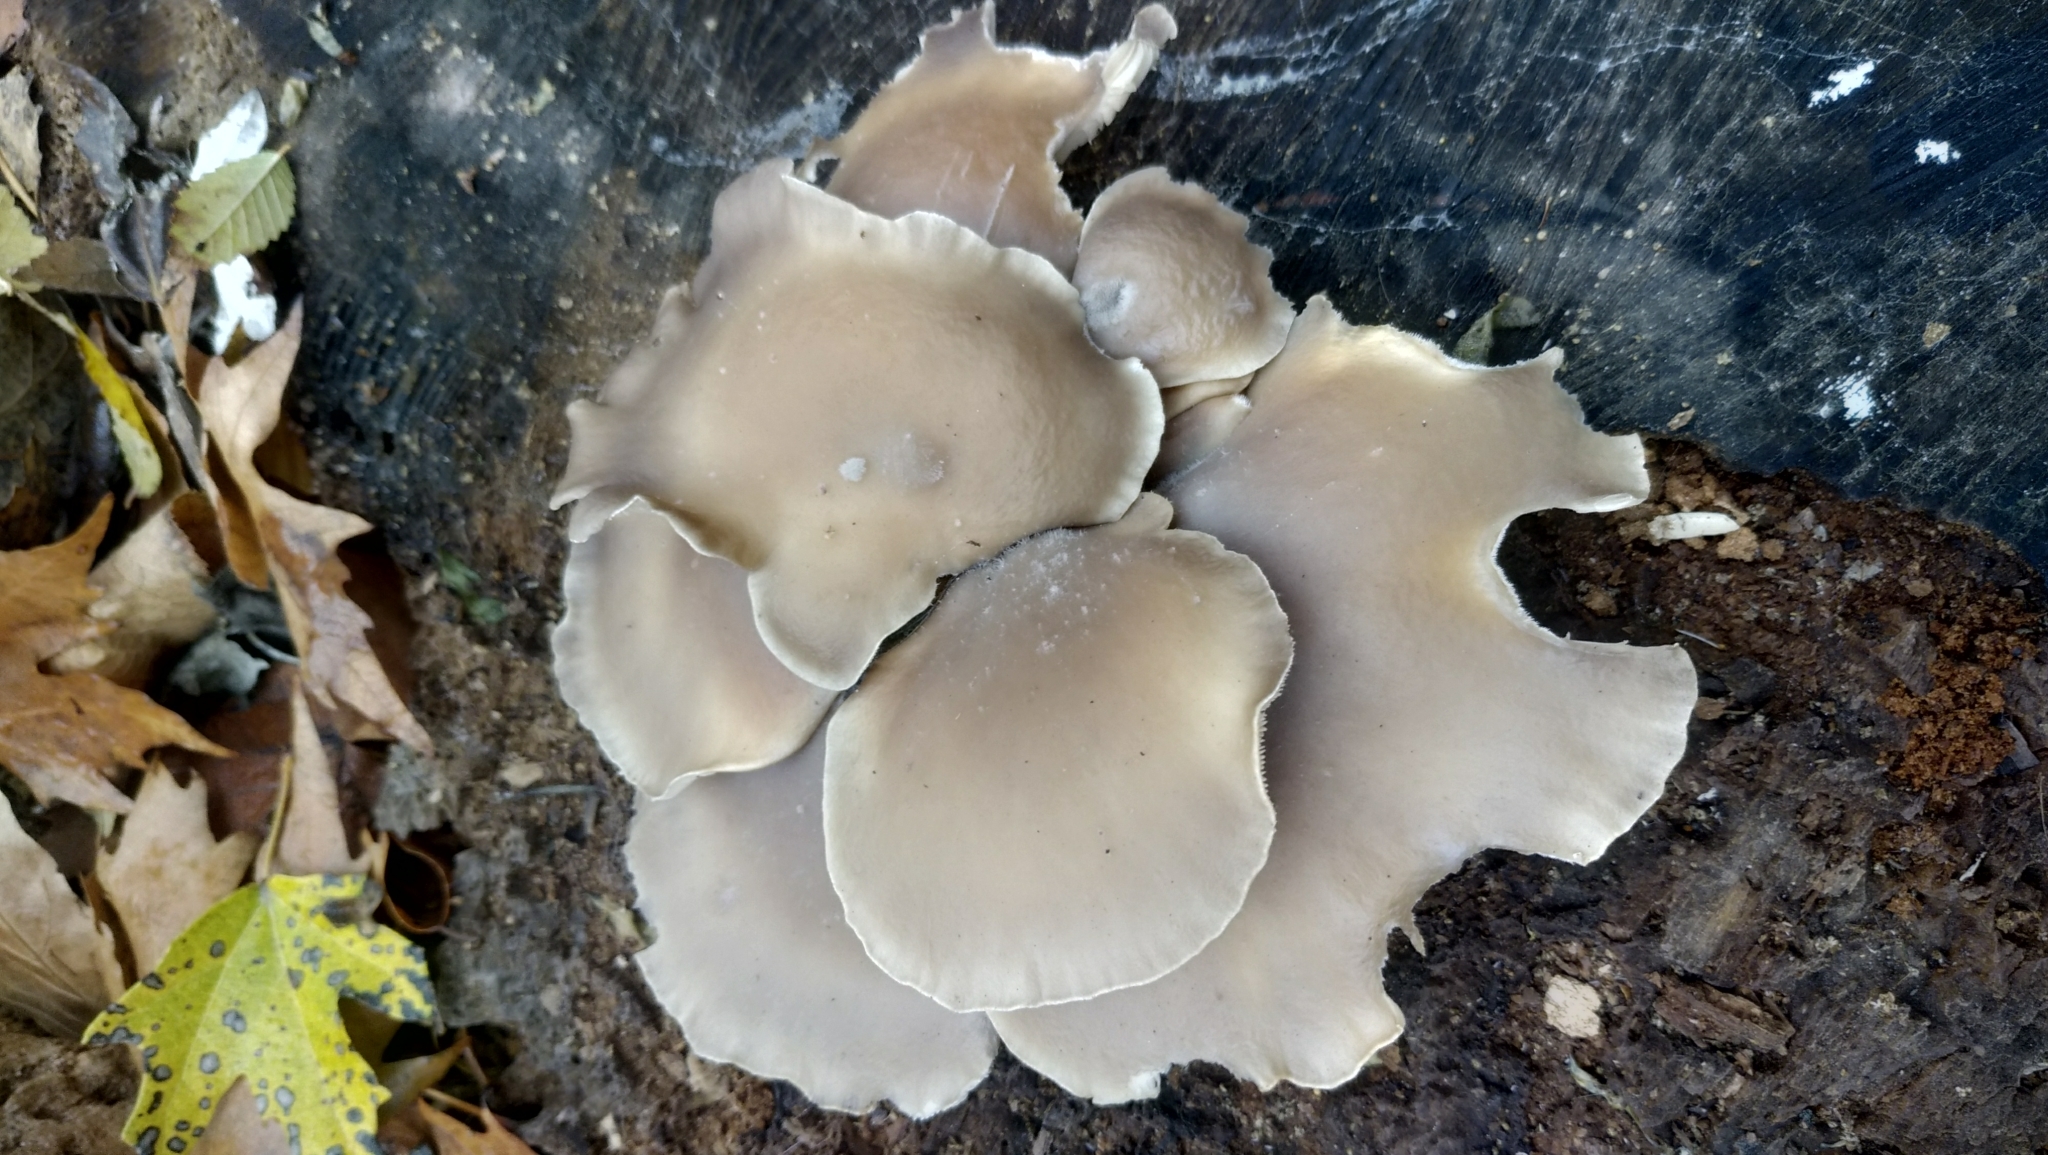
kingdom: Fungi
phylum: Basidiomycota
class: Agaricomycetes
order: Agaricales
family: Pleurotaceae
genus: Pleurotus
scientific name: Pleurotus ostreatus
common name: Oyster mushroom
